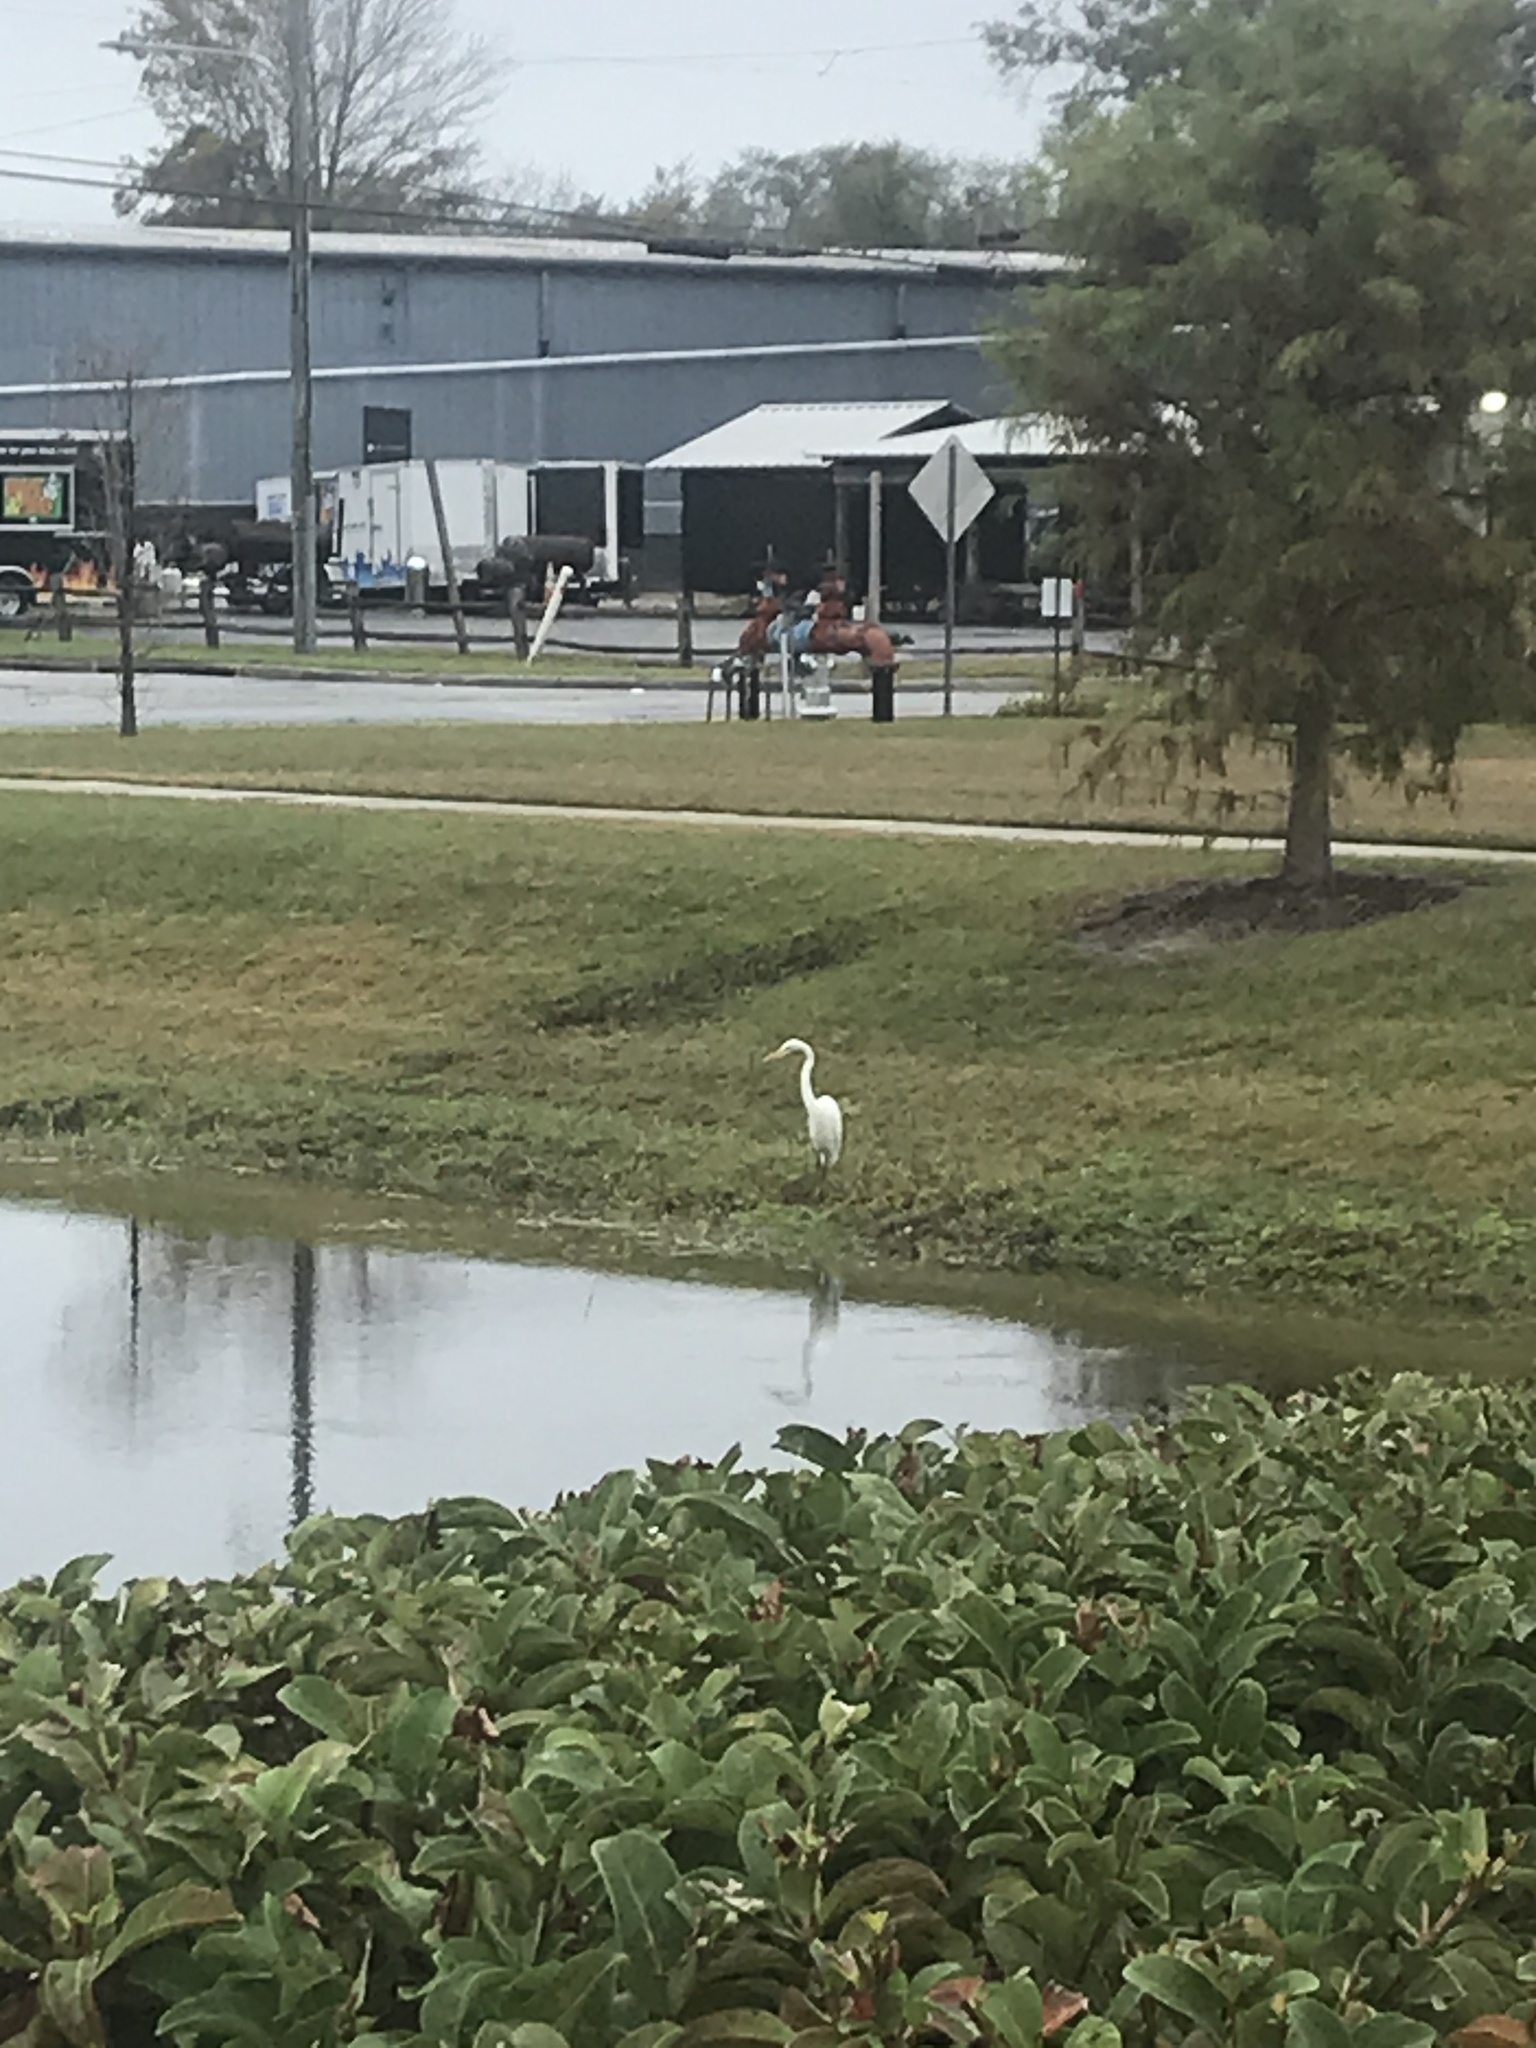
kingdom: Animalia
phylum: Chordata
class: Aves
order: Pelecaniformes
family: Ardeidae
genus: Ardea
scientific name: Ardea alba
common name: Great egret
